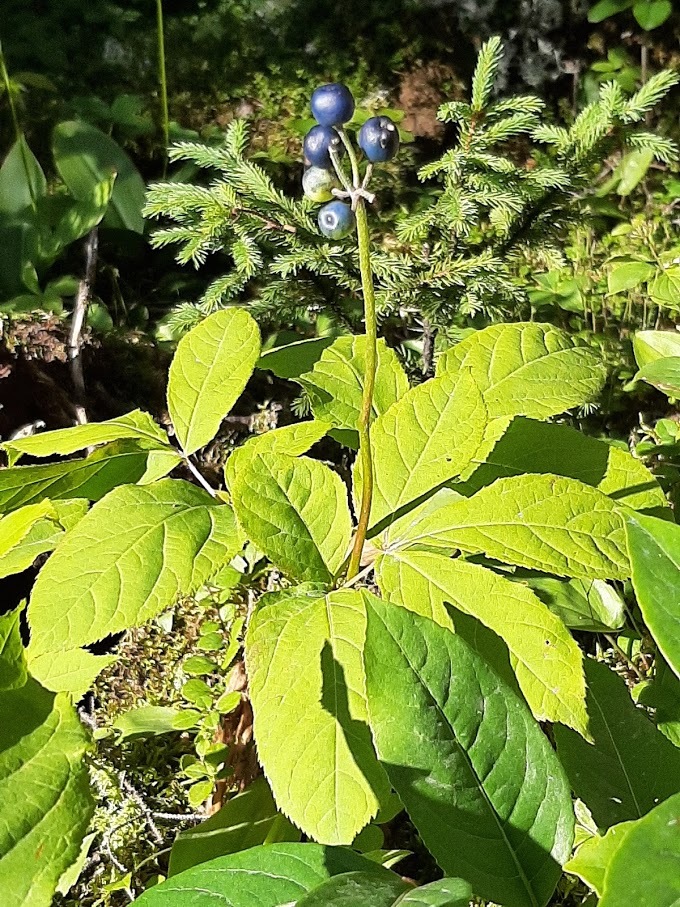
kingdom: Plantae
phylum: Tracheophyta
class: Liliopsida
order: Liliales
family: Liliaceae
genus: Clintonia
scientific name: Clintonia borealis
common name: Yellow clintonia
